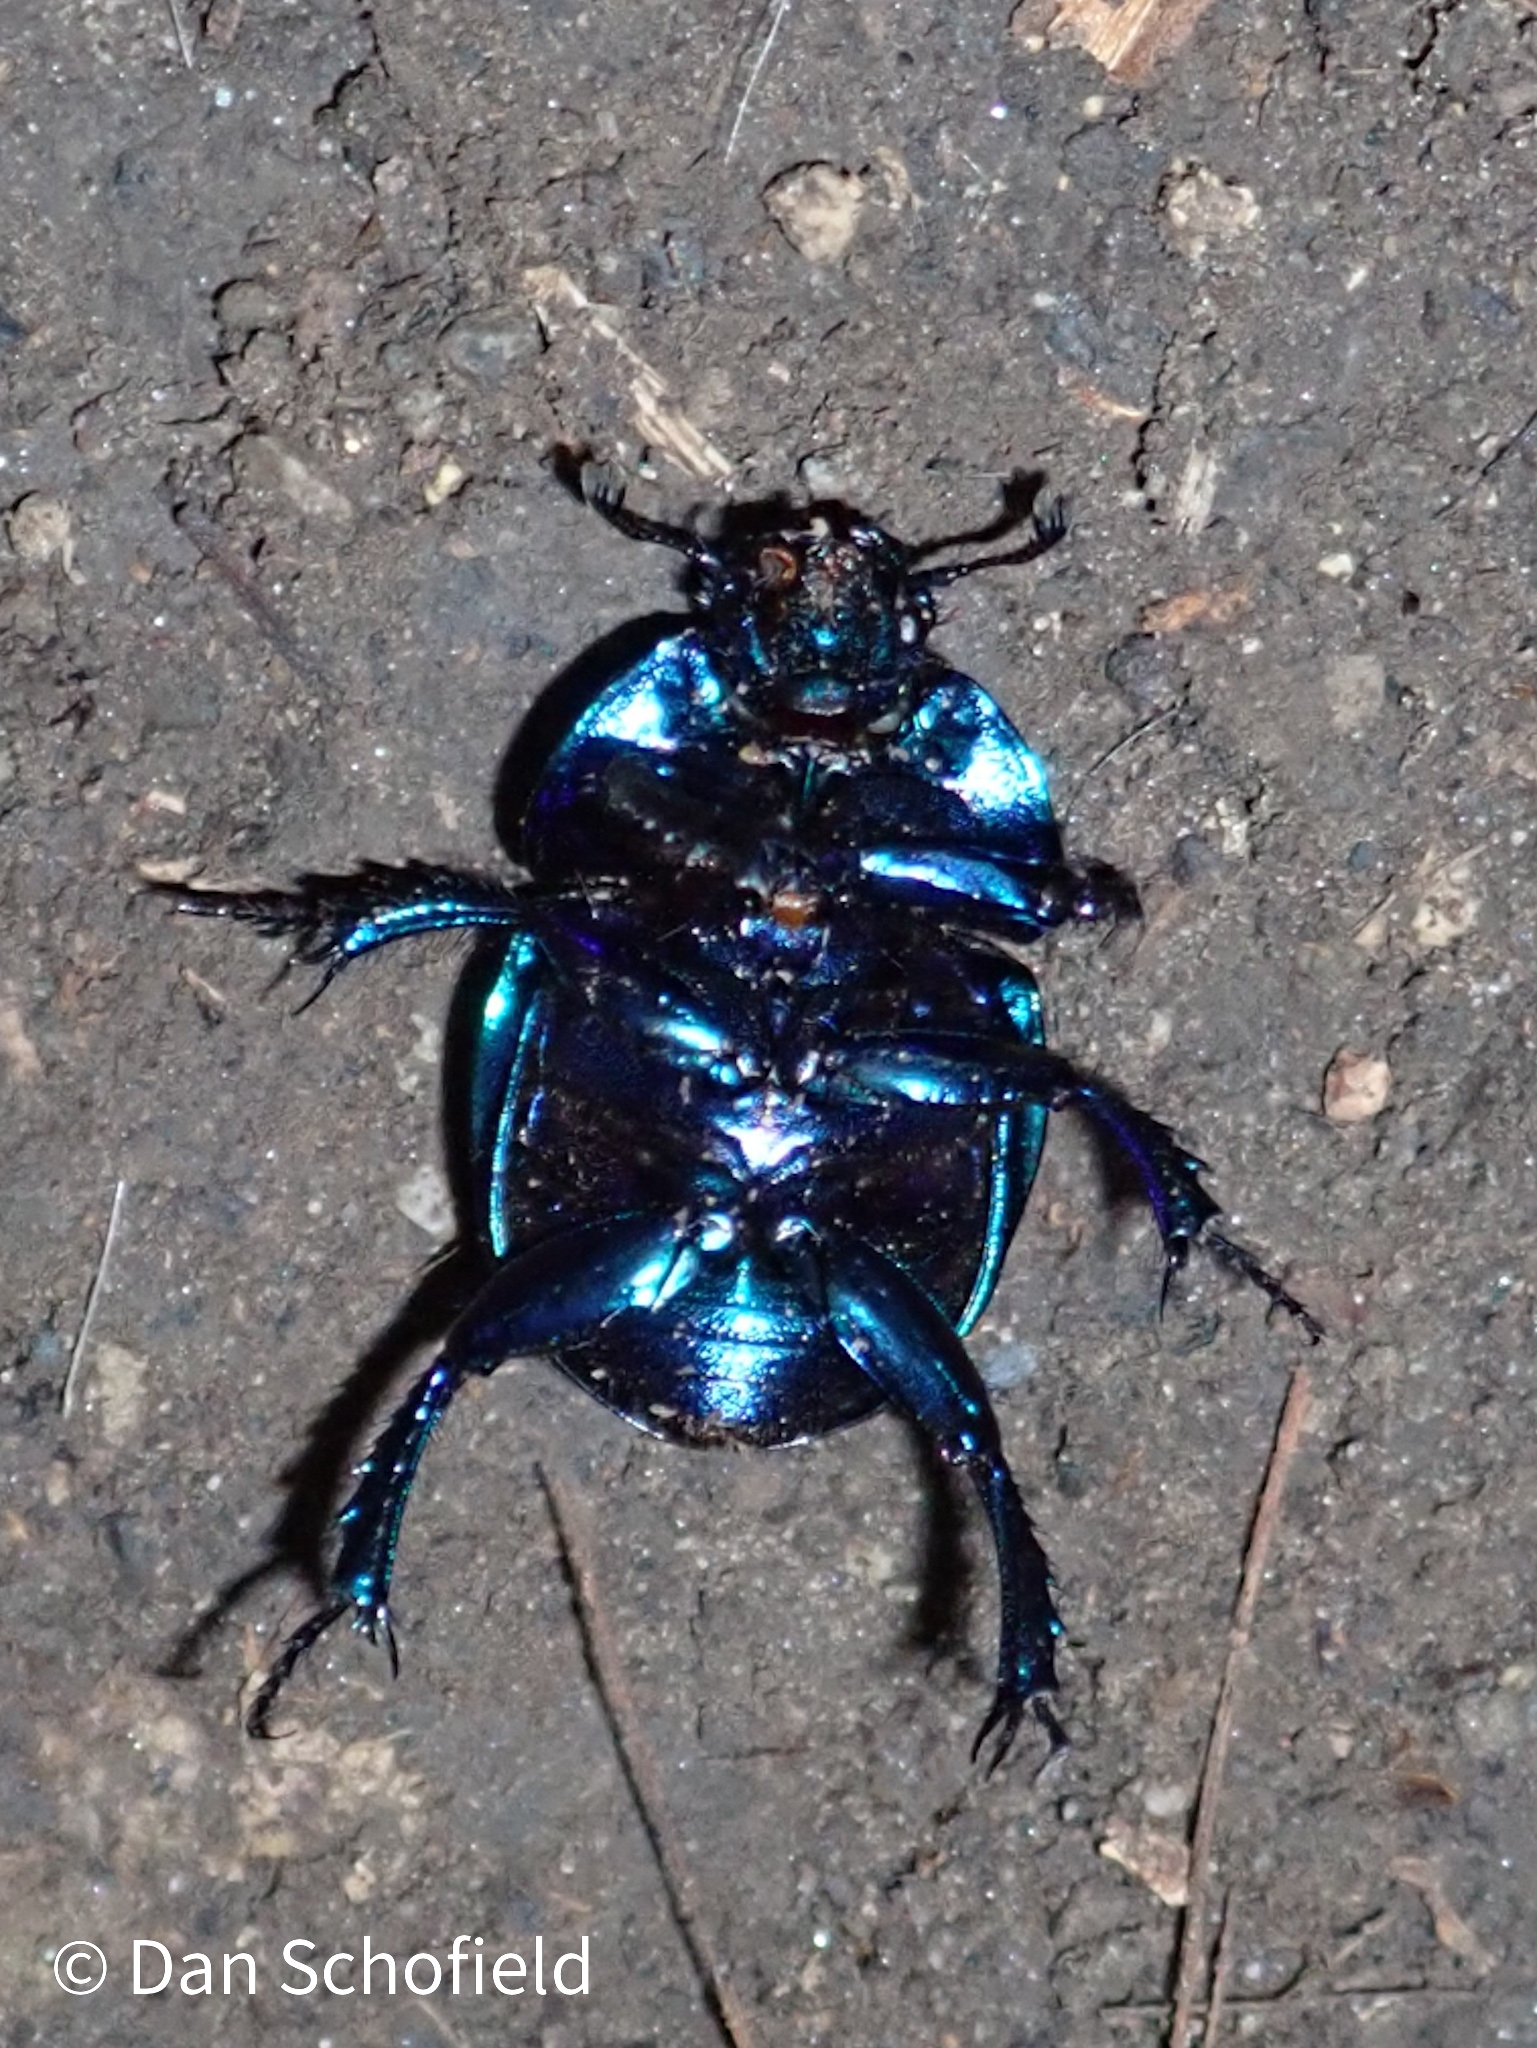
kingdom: Animalia
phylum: Arthropoda
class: Insecta
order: Coleoptera
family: Geotrupidae
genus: Trypocopris
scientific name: Trypocopris vernalis
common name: Spring dumbledor
